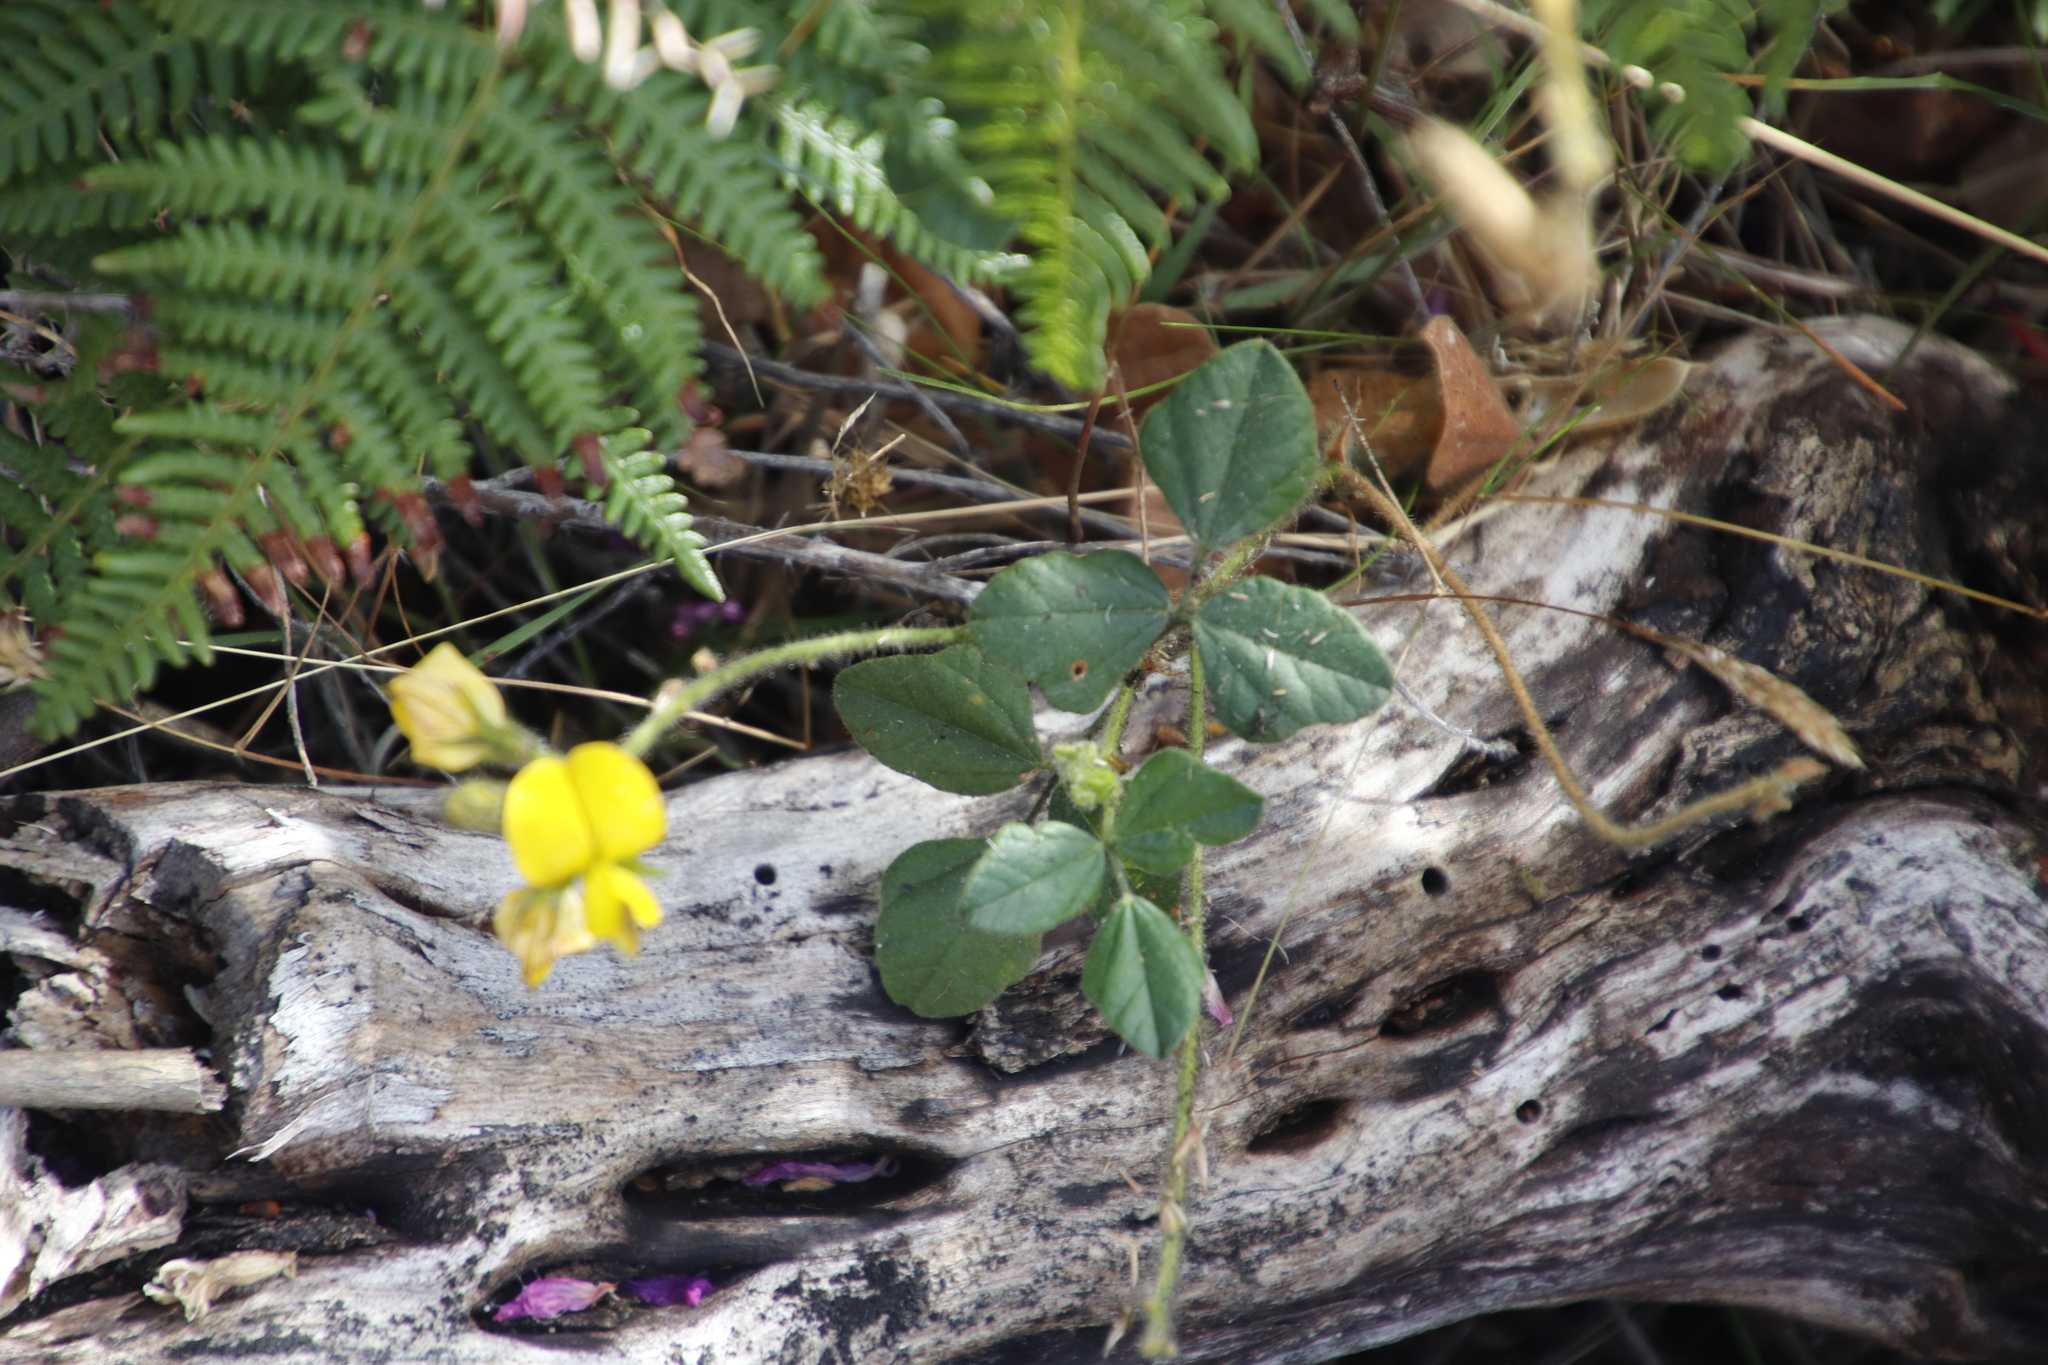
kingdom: Plantae
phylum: Tracheophyta
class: Magnoliopsida
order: Fabales
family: Fabaceae
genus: Bolusafra
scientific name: Bolusafra bituminosa
